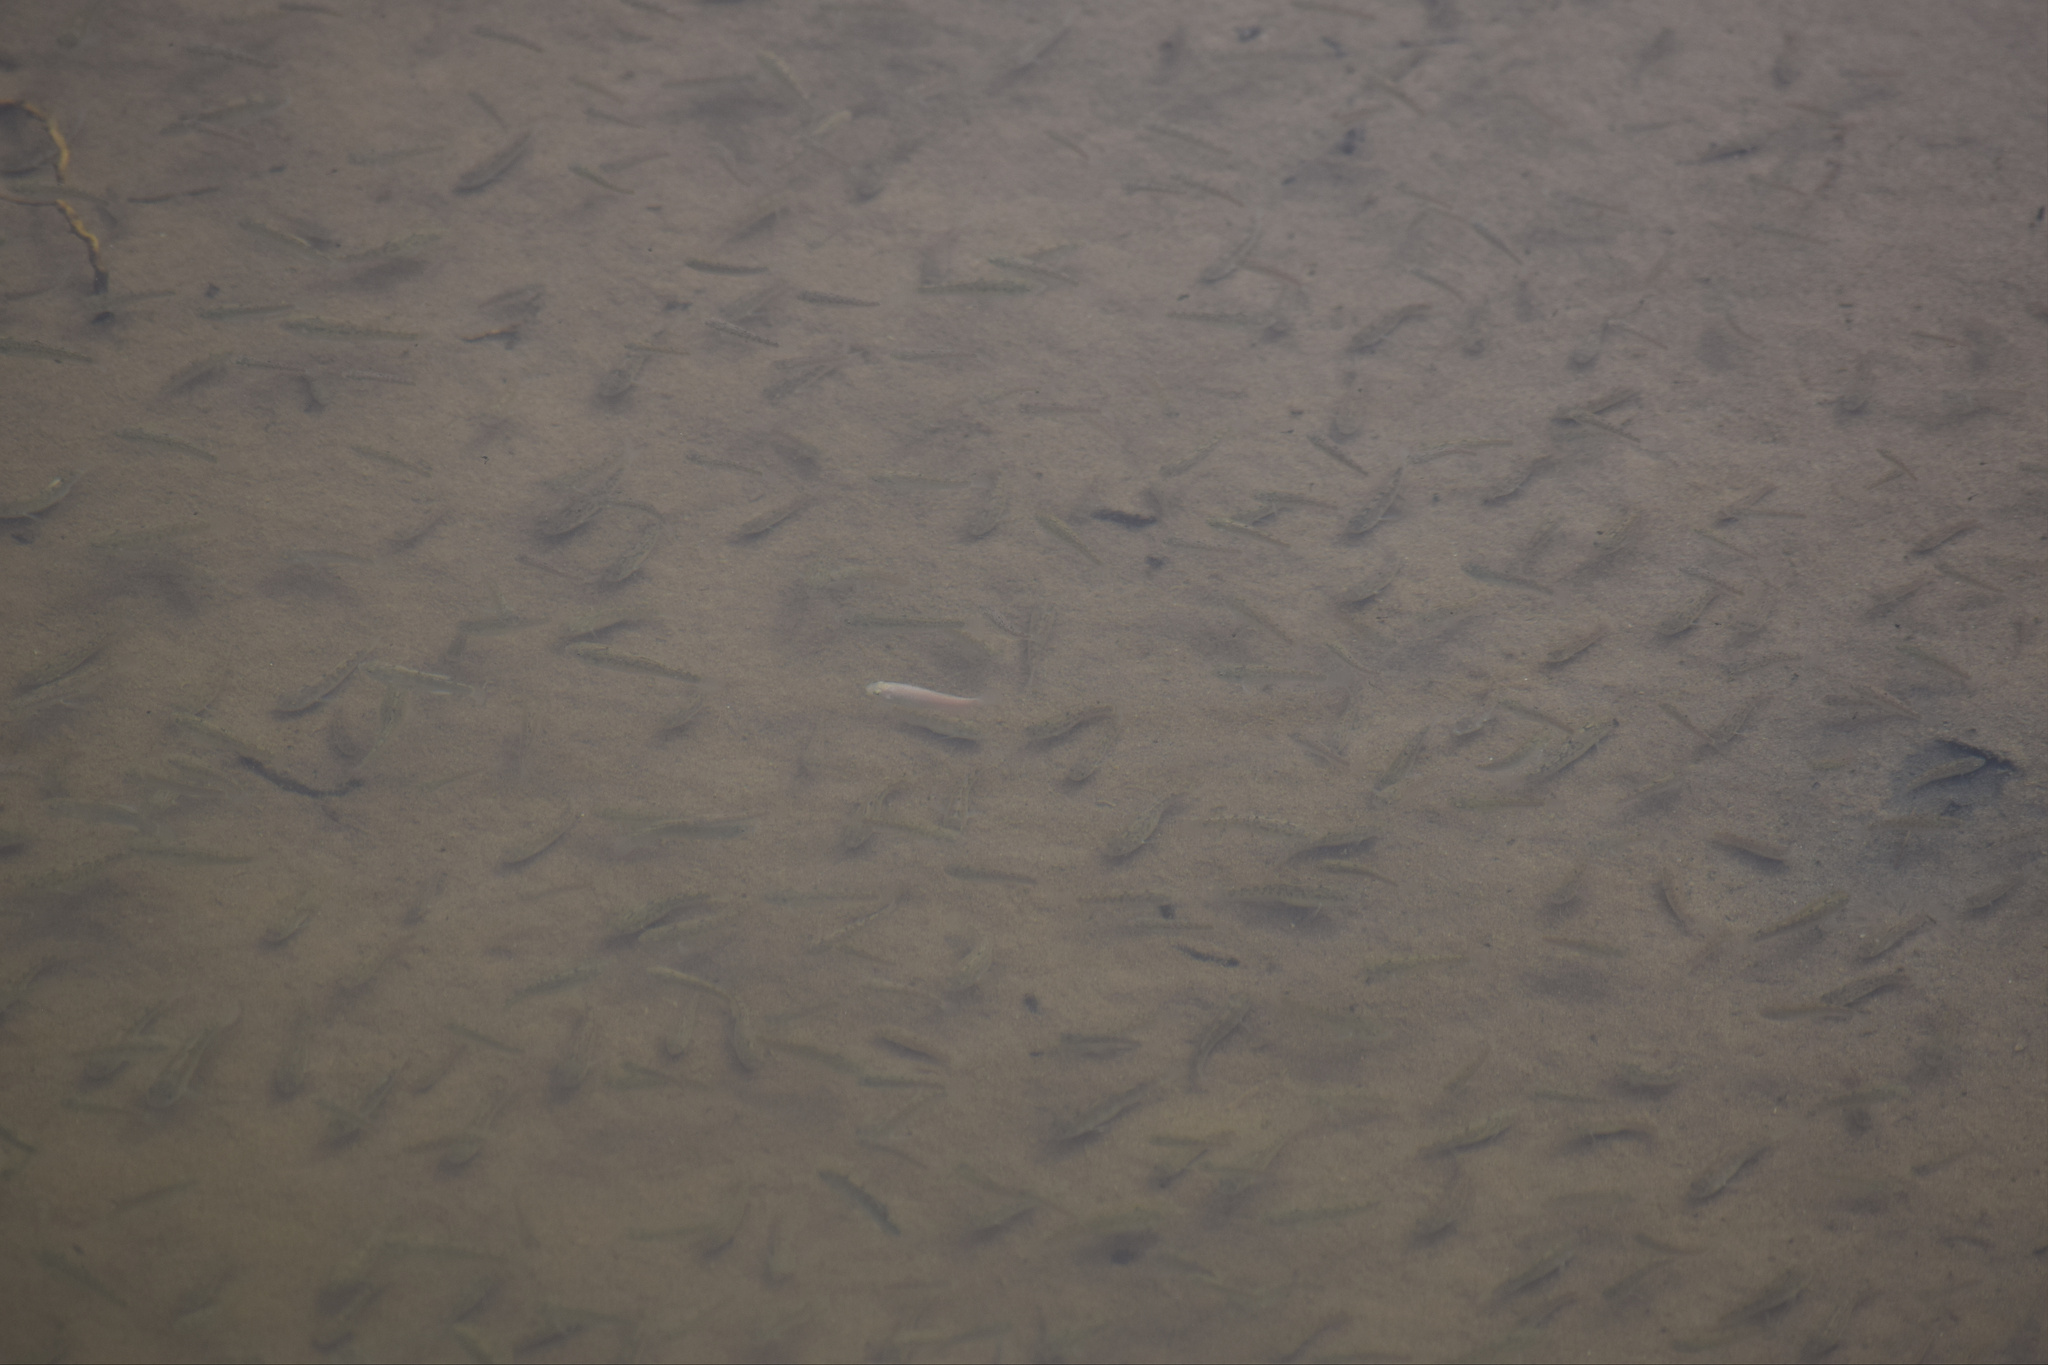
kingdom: Animalia
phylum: Chordata
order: Cyprinodontiformes
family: Cyprinodontidae
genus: Cyprinodon
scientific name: Cyprinodon salinus
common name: Cottonball marsh pupfish
